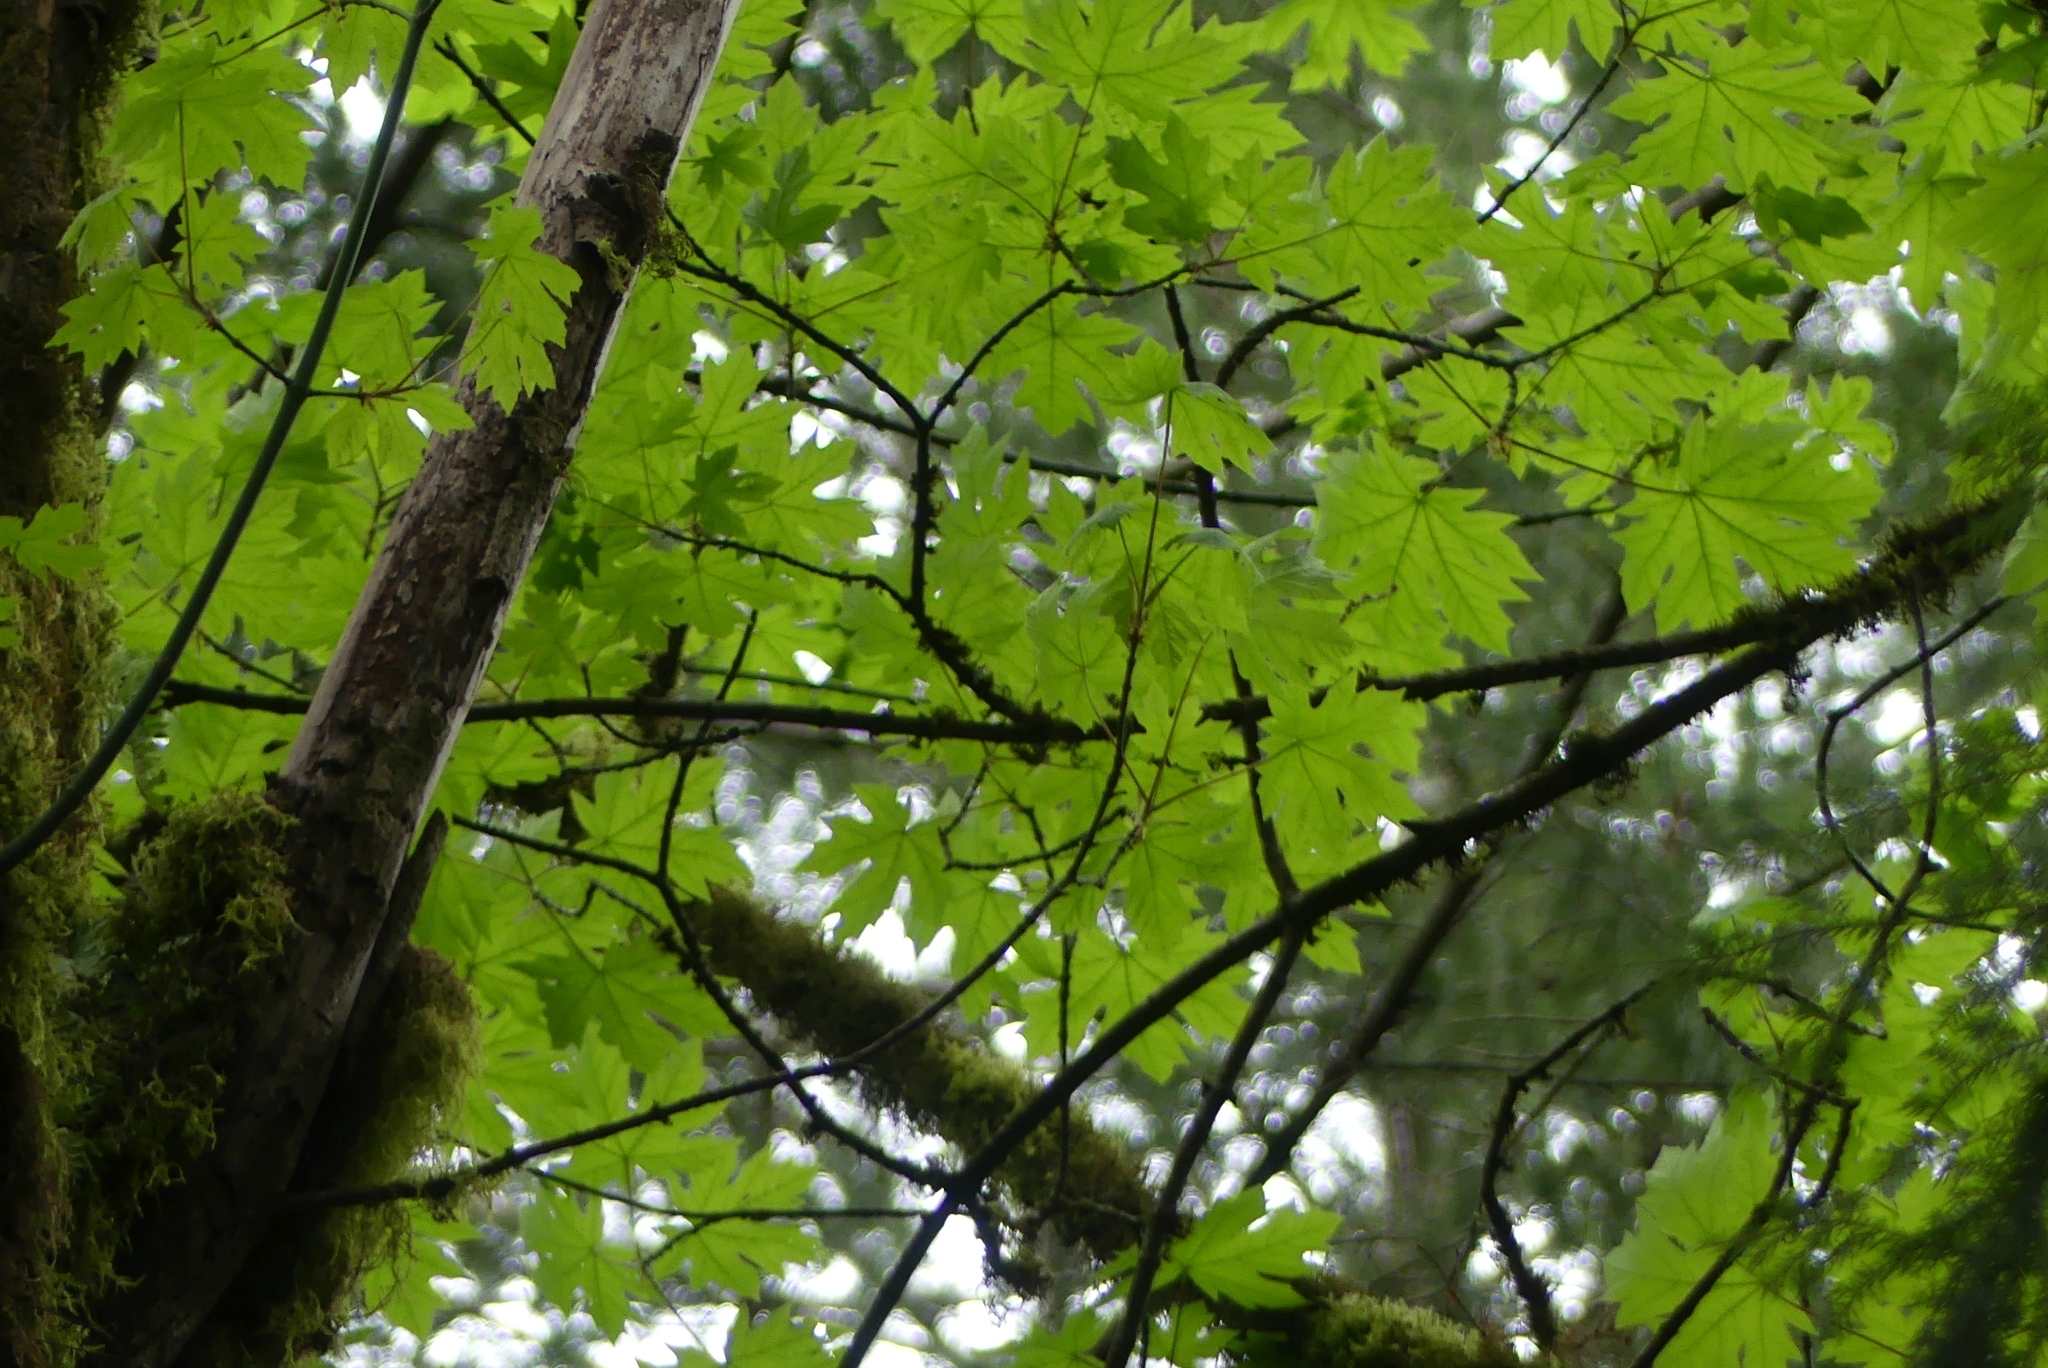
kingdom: Plantae
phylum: Tracheophyta
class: Magnoliopsida
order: Sapindales
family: Sapindaceae
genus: Acer
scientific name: Acer macrophyllum
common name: Oregon maple
